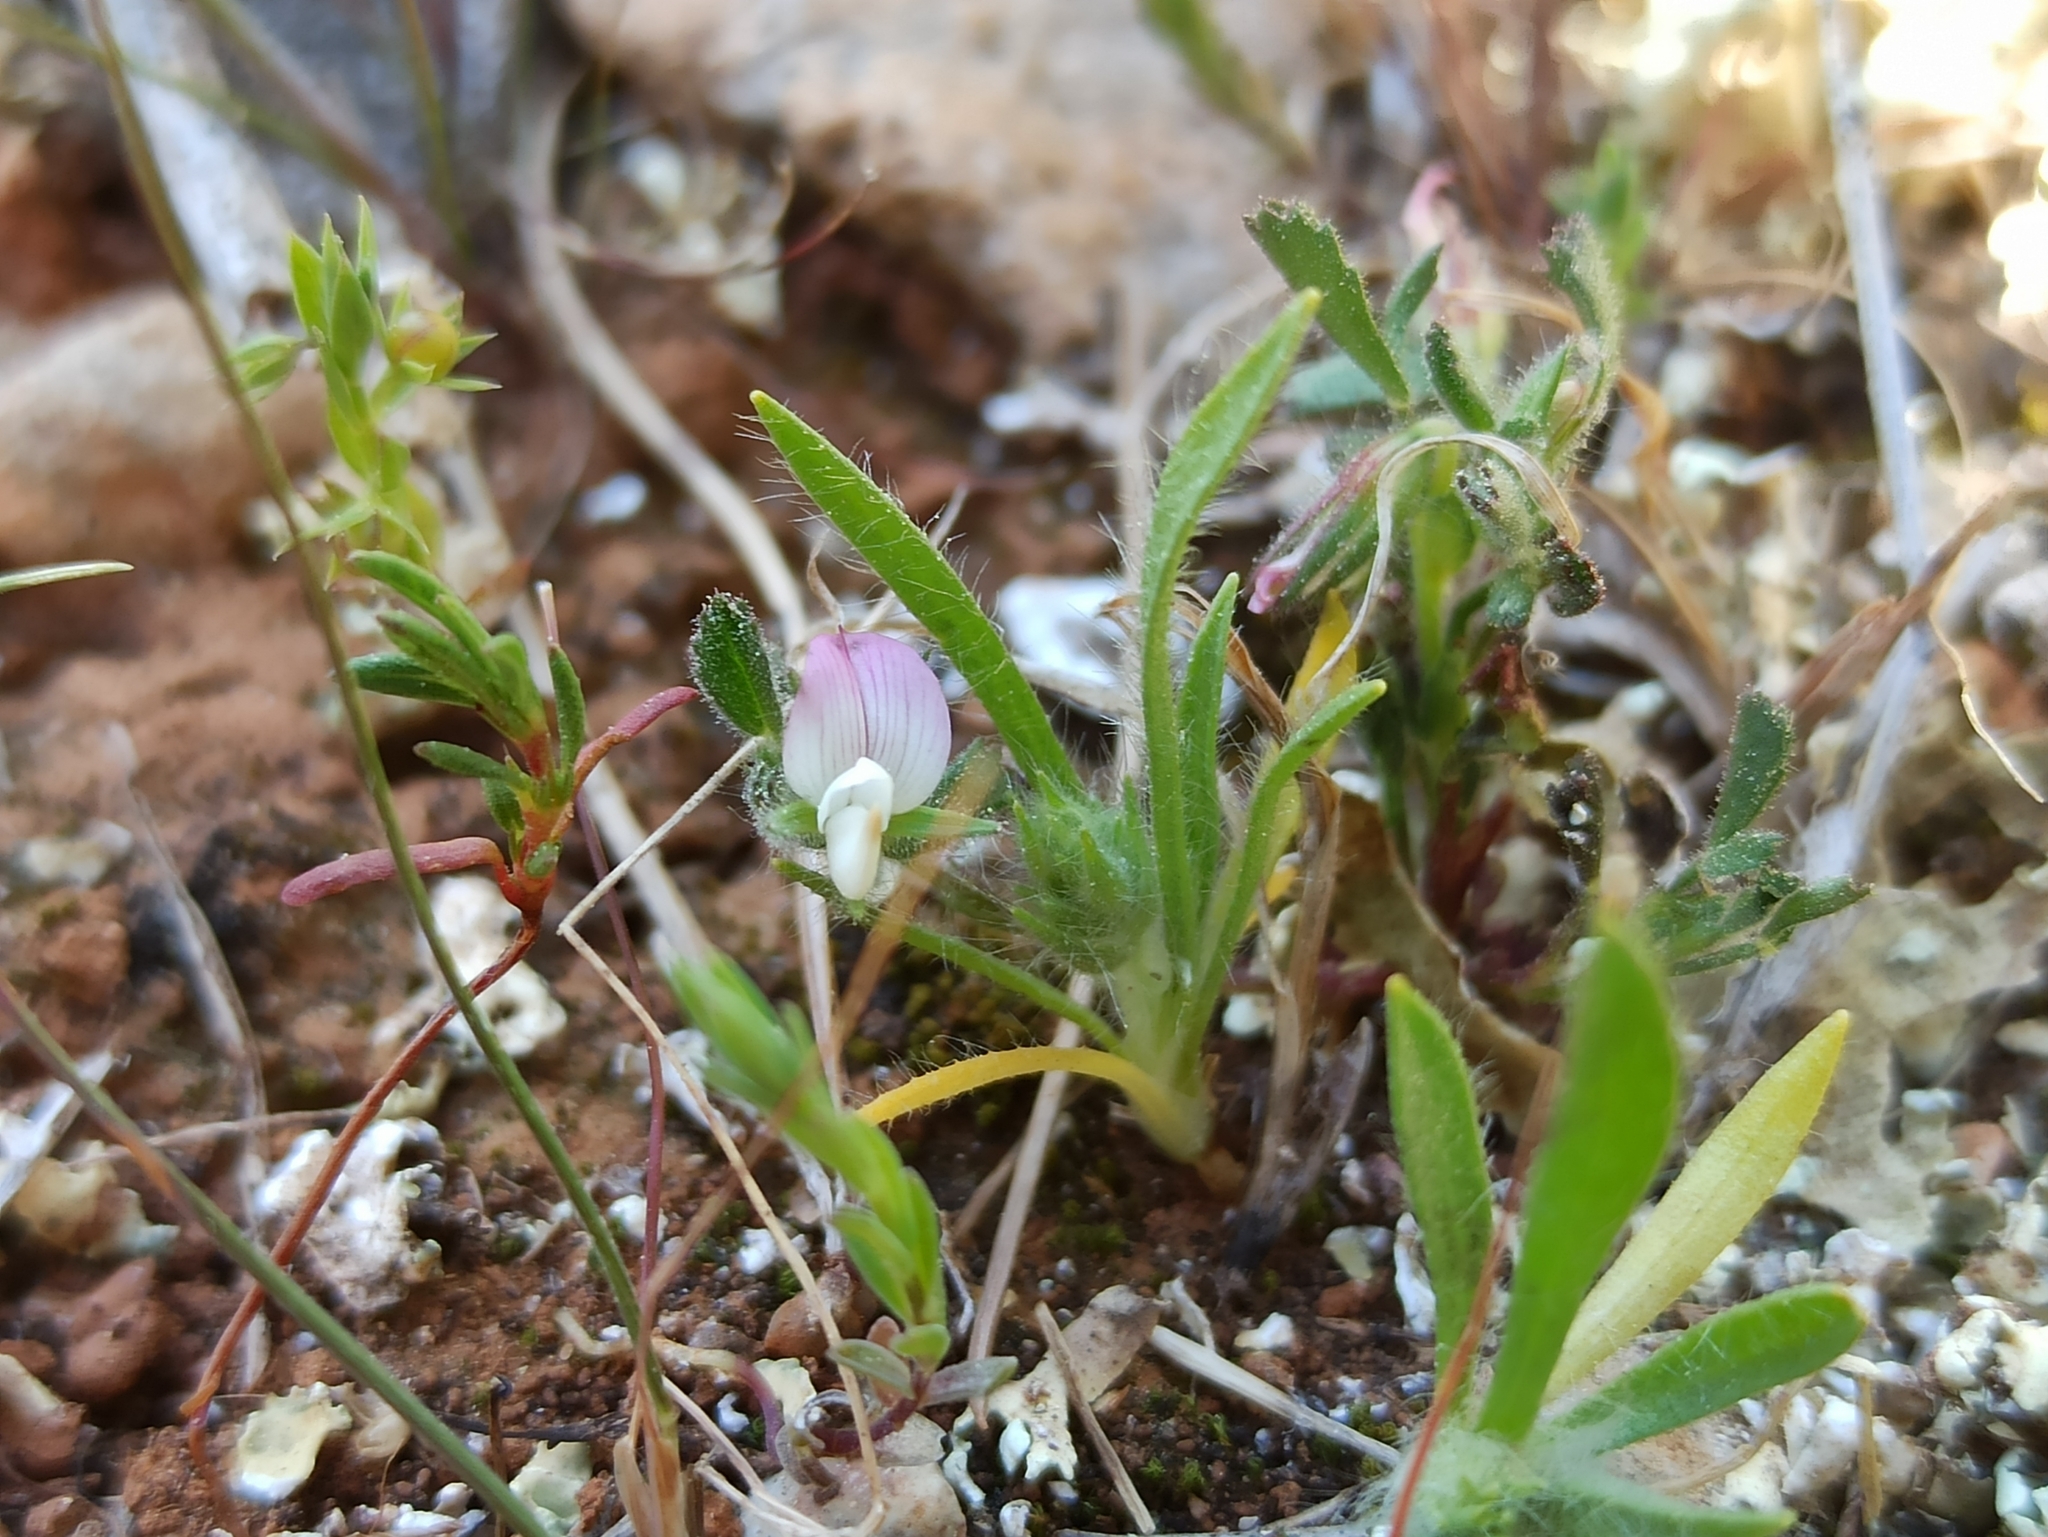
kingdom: Plantae
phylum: Tracheophyta
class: Magnoliopsida
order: Fabales
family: Fabaceae
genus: Ononis
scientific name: Ononis reclinata
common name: Small restharrow
